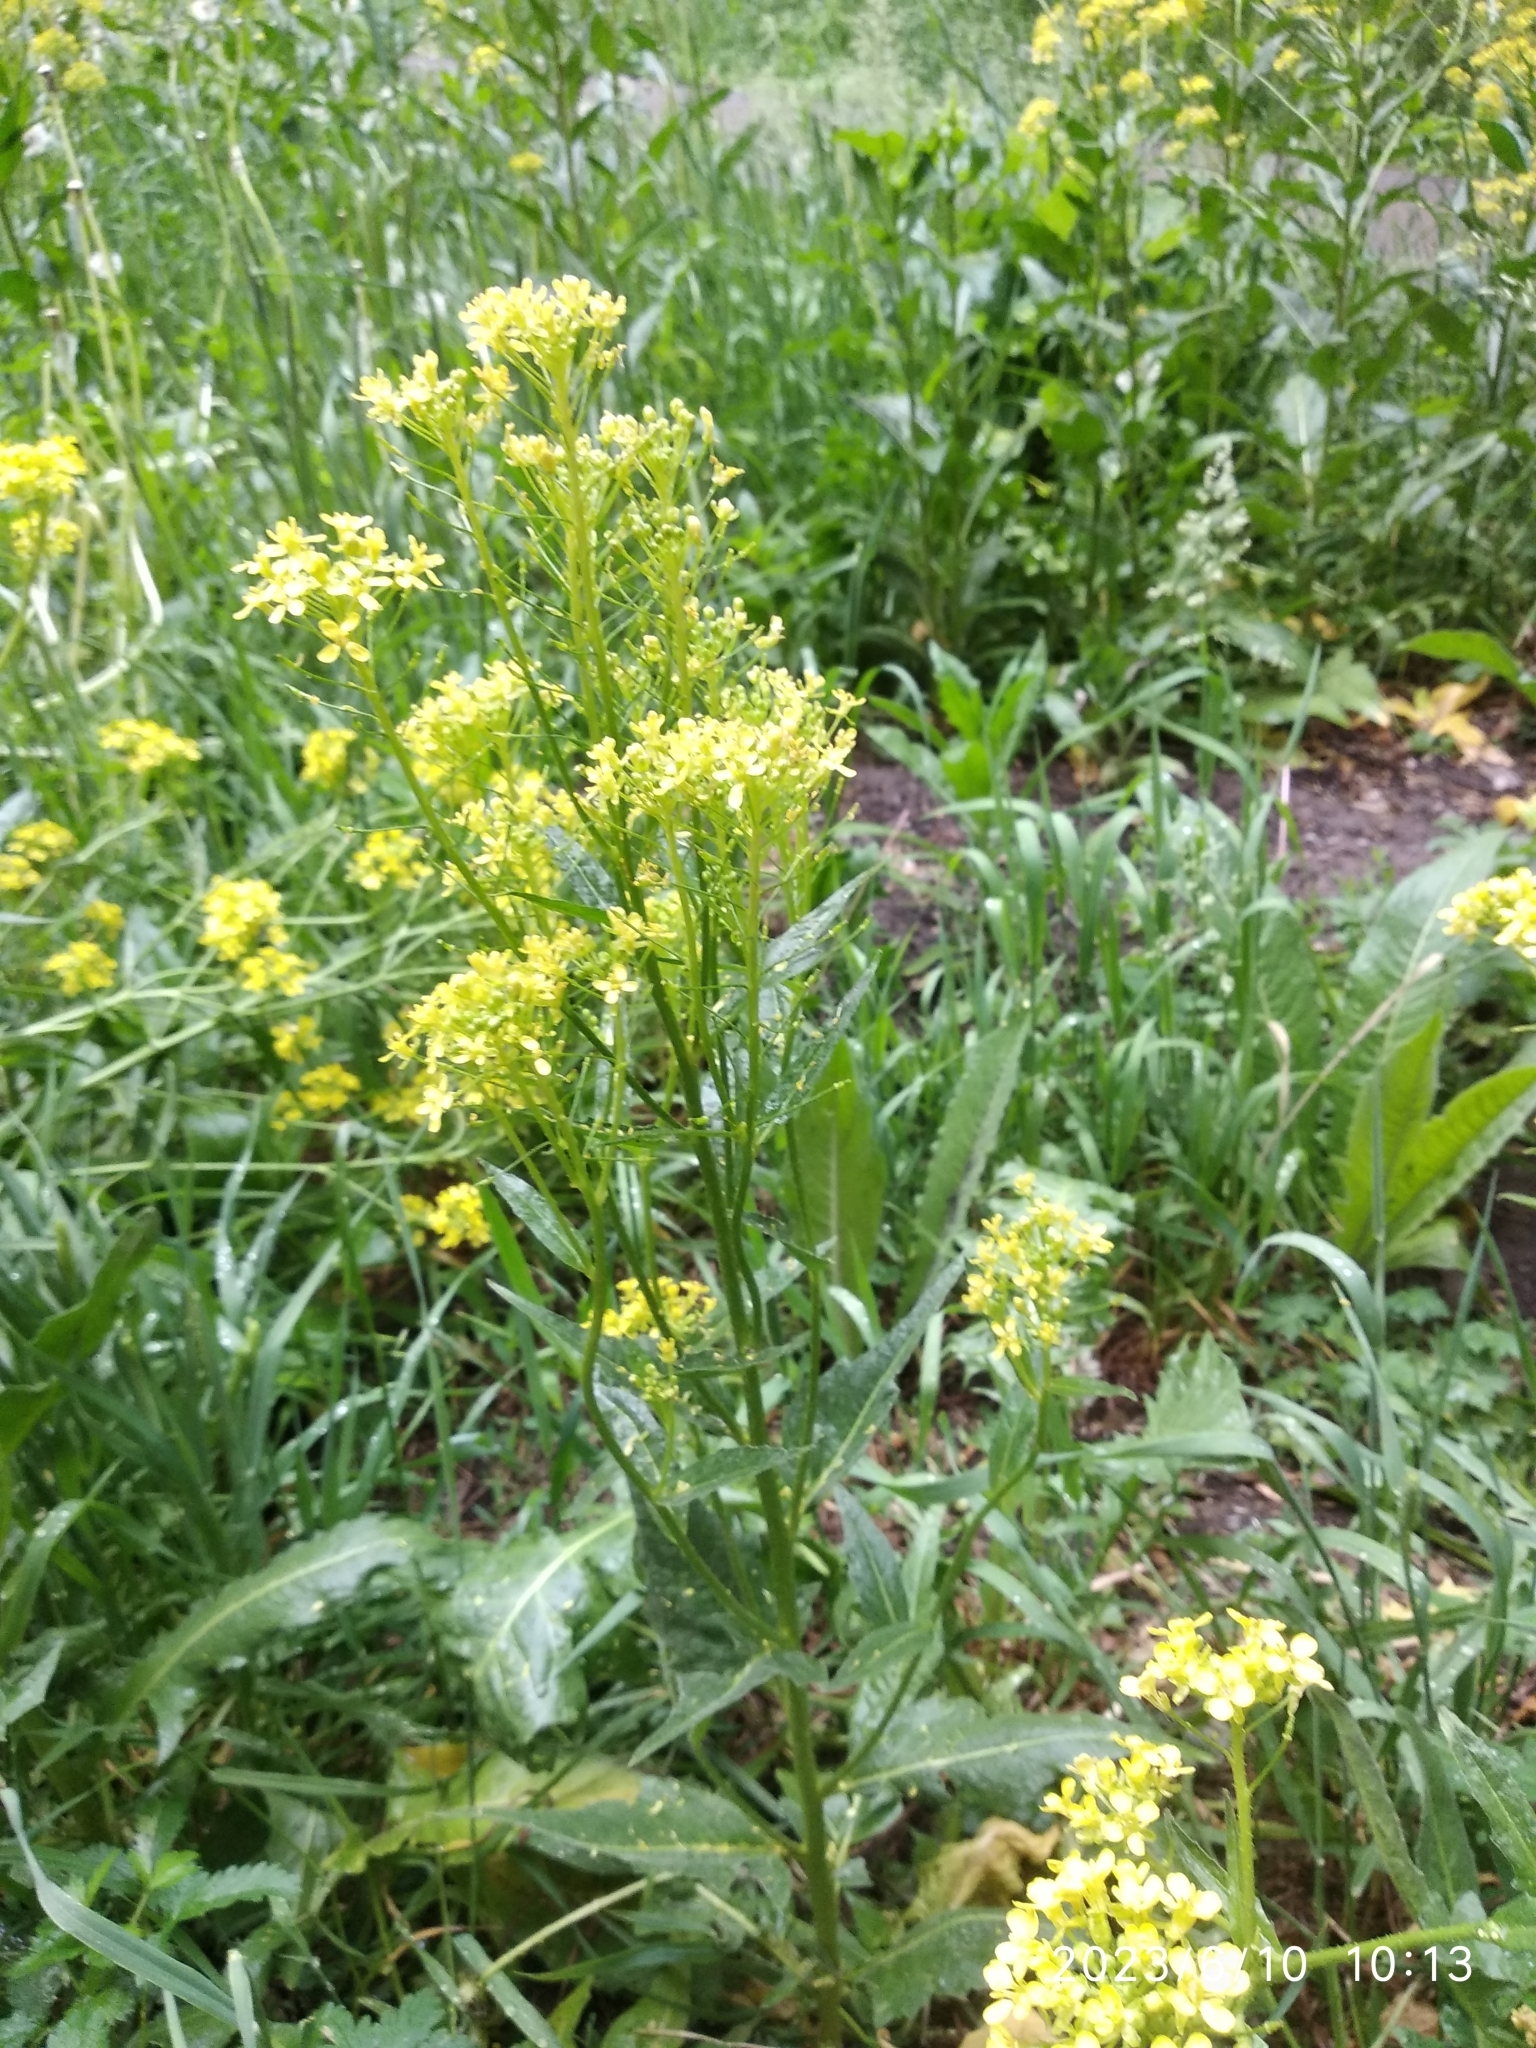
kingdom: Plantae
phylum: Tracheophyta
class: Magnoliopsida
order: Brassicales
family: Brassicaceae
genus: Bunias
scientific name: Bunias orientalis
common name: Warty-cabbage
